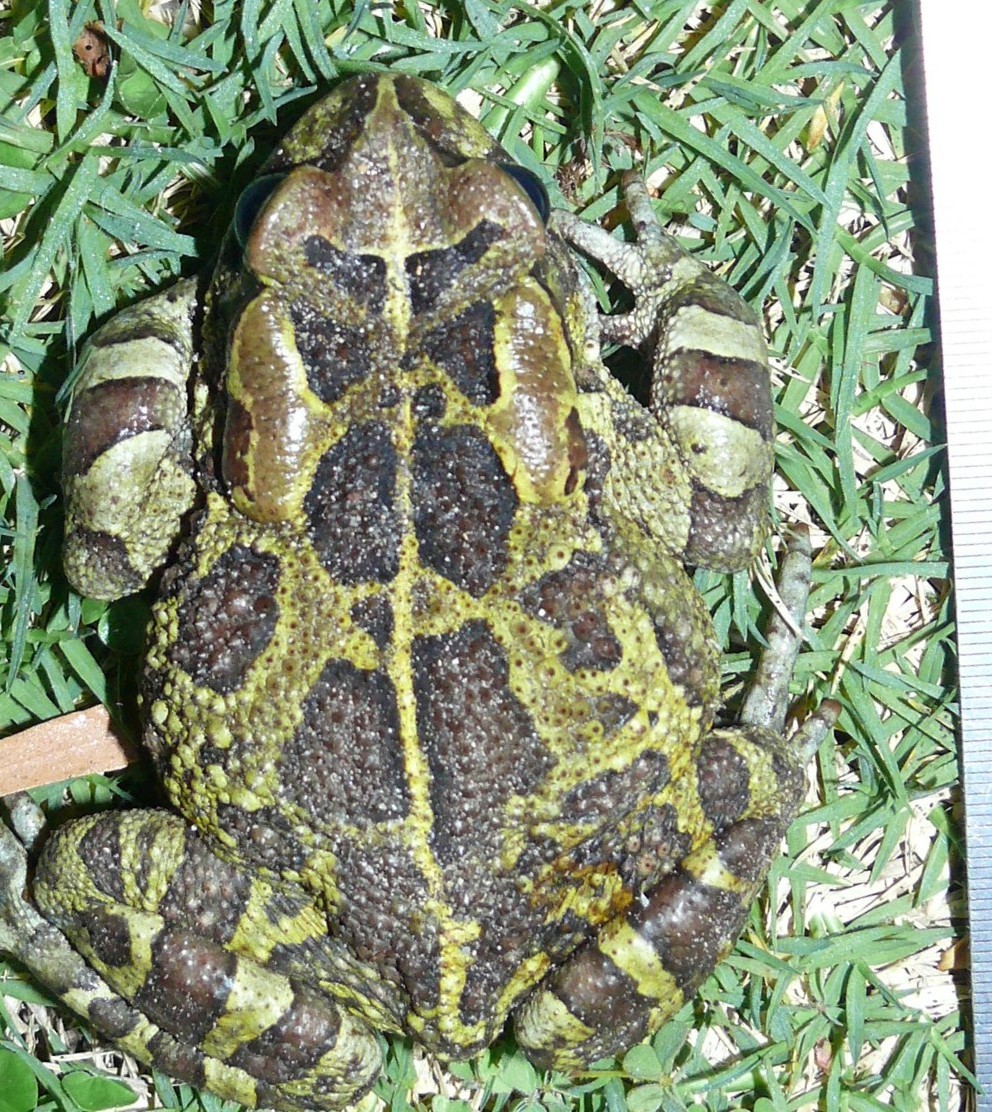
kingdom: Animalia
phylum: Chordata
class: Amphibia
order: Anura
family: Bufonidae
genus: Sclerophrys
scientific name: Sclerophrys pantherina
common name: Panther toad
